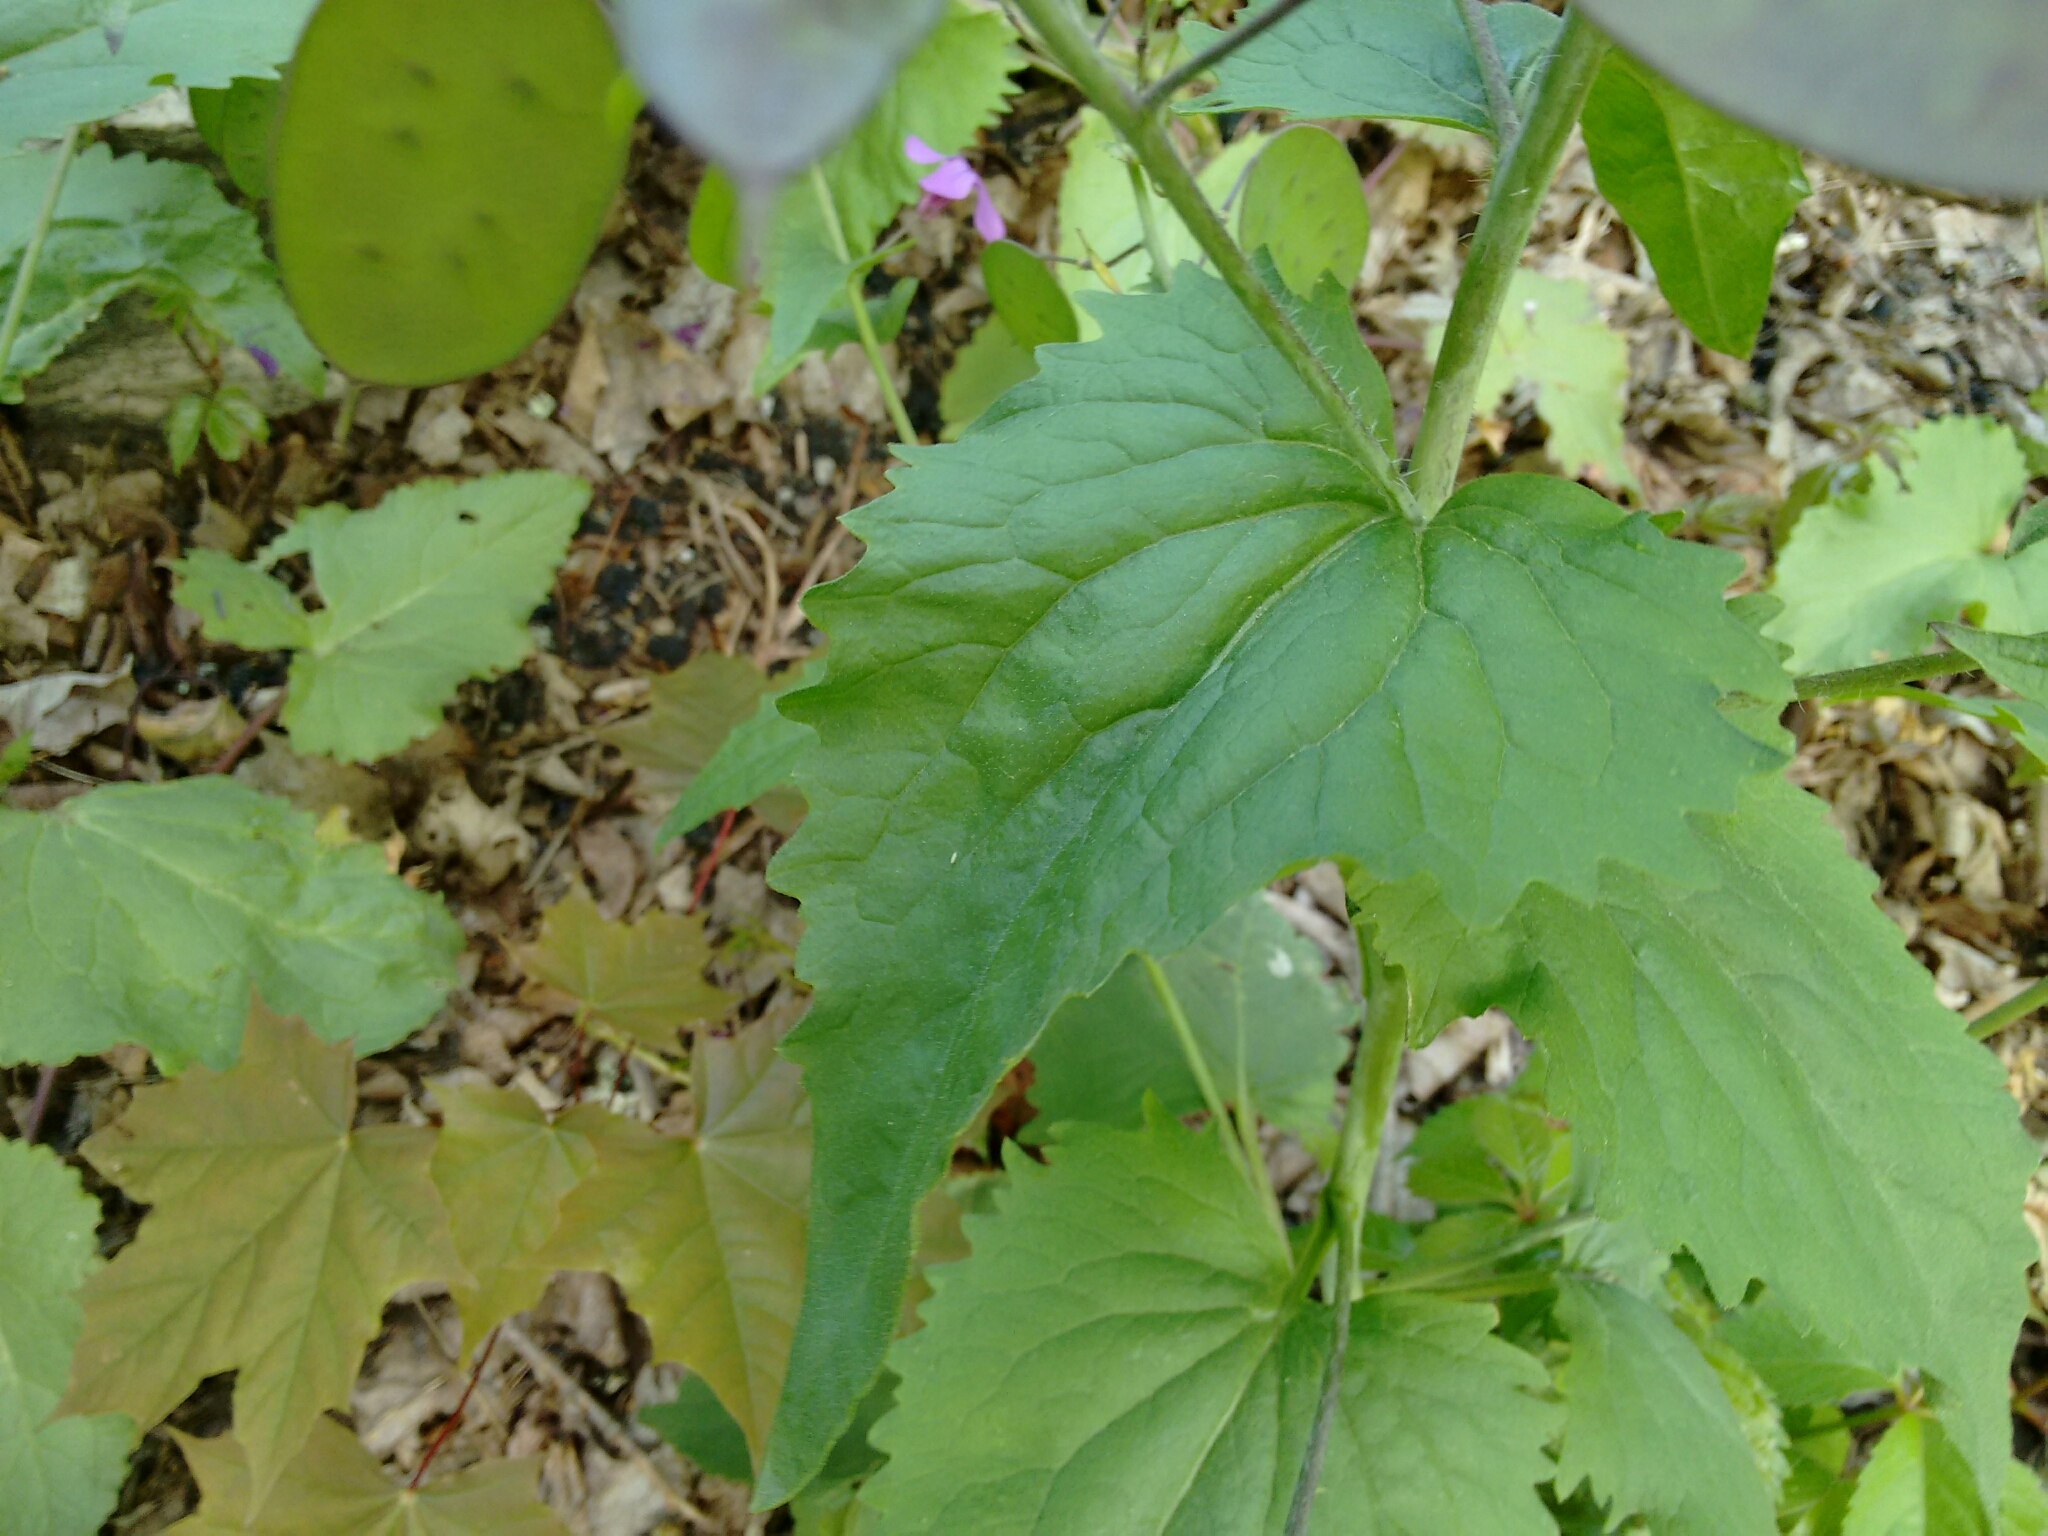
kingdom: Plantae
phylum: Tracheophyta
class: Magnoliopsida
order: Brassicales
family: Brassicaceae
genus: Lunaria
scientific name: Lunaria annua
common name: Honesty
